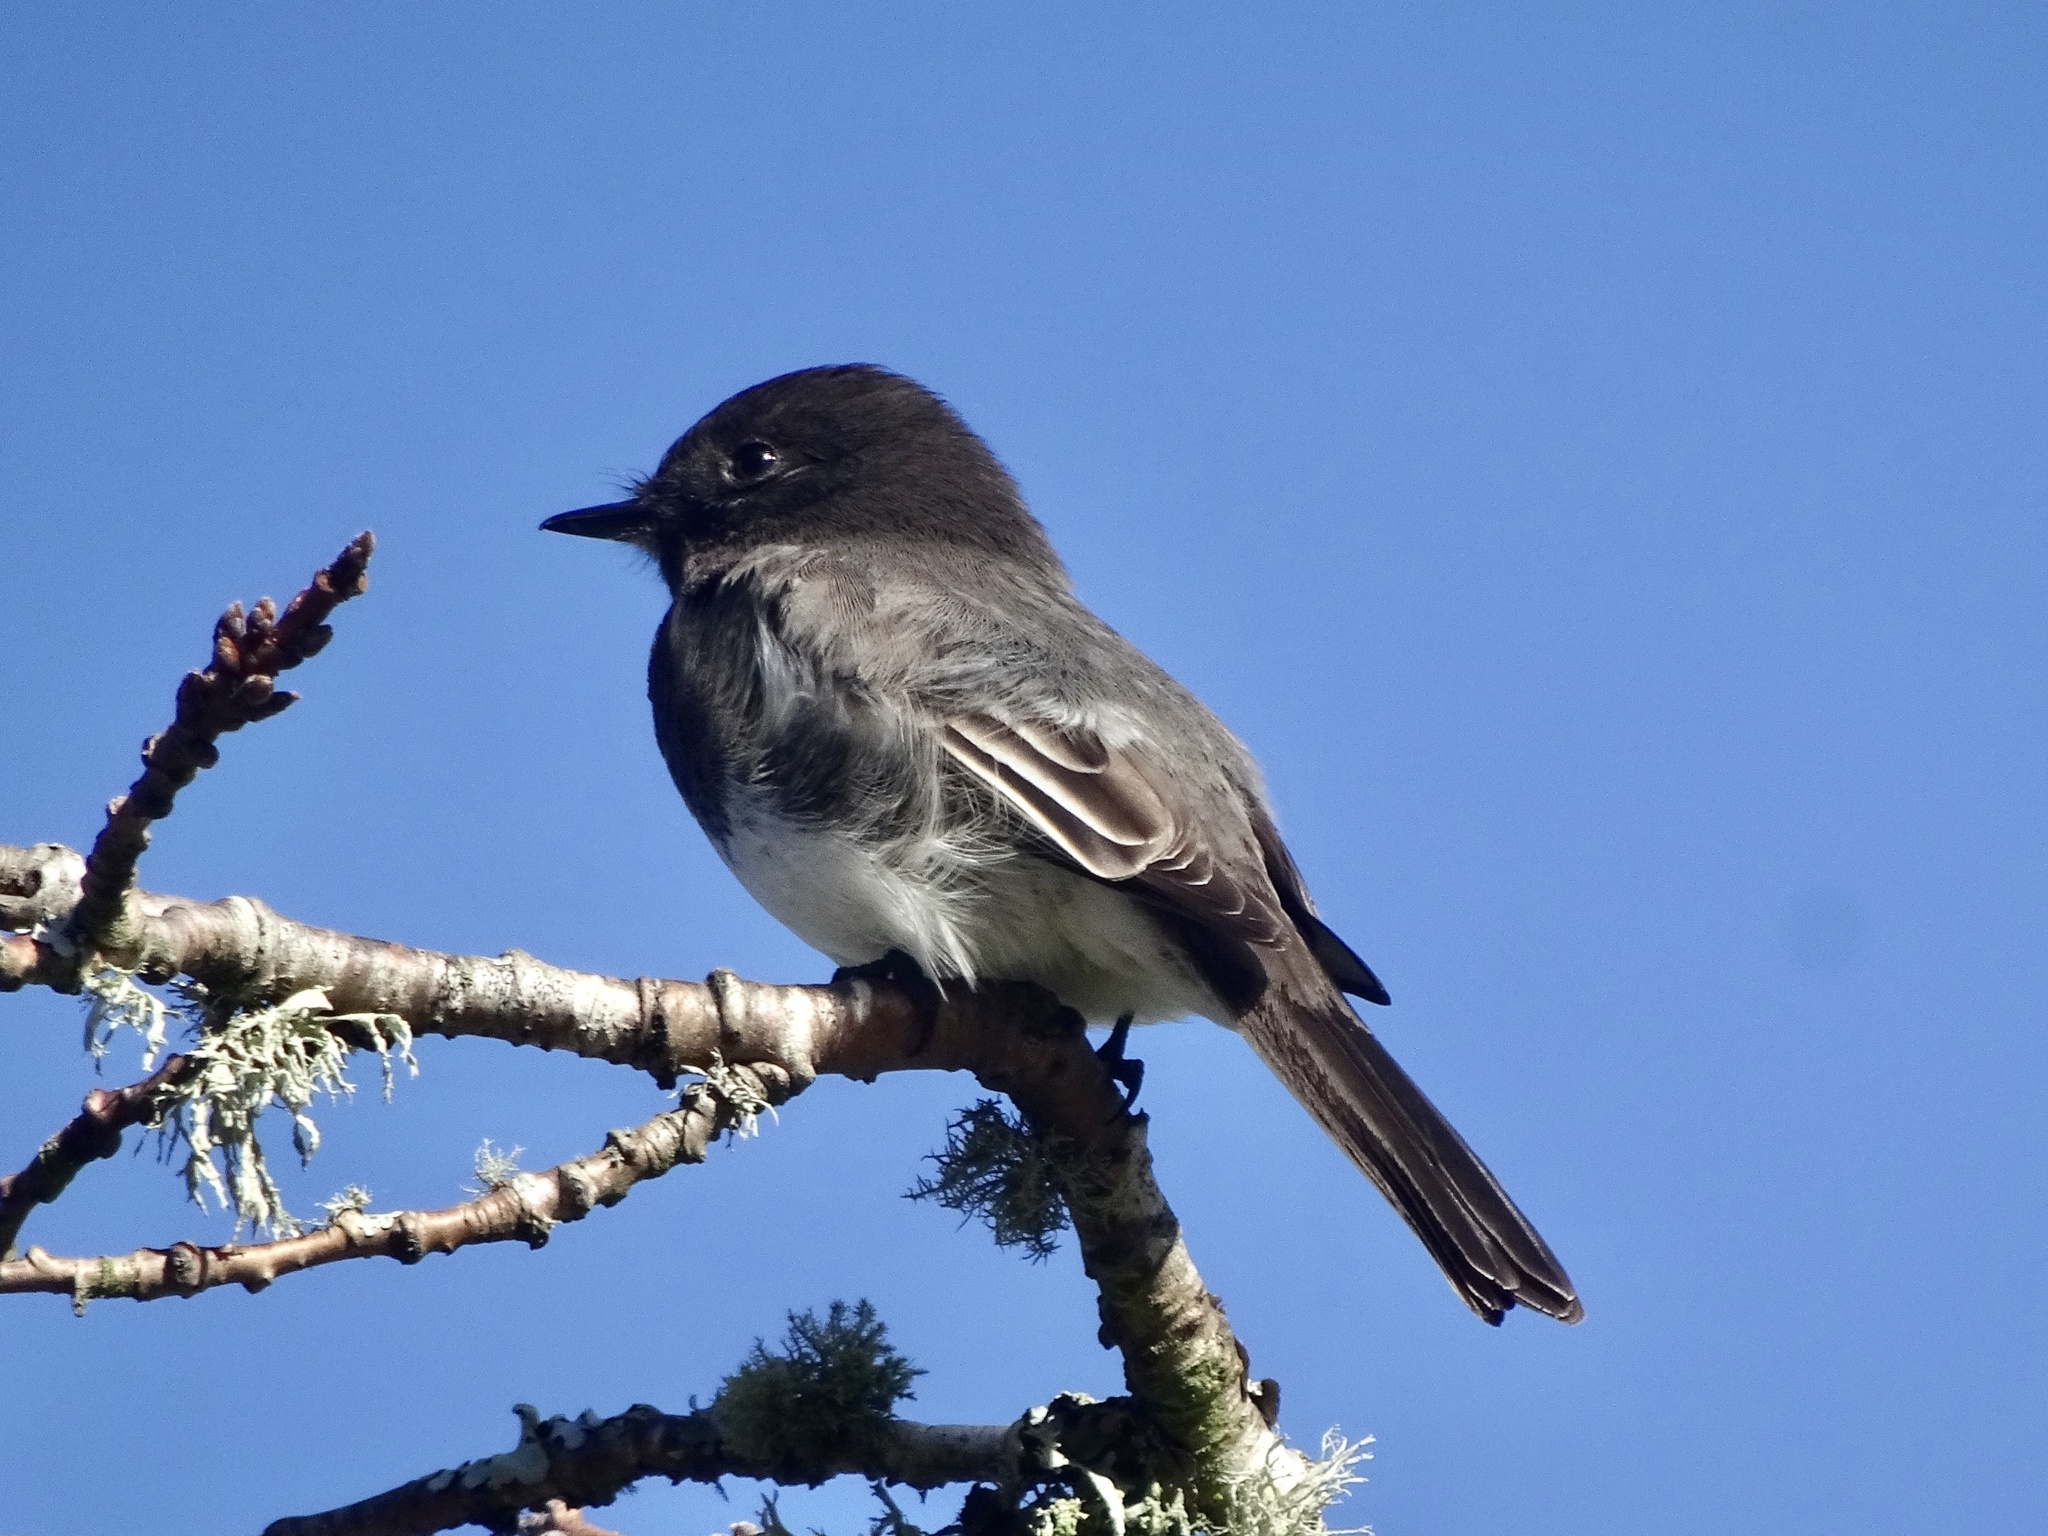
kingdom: Animalia
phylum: Chordata
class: Aves
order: Passeriformes
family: Tyrannidae
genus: Sayornis
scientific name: Sayornis nigricans
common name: Black phoebe
